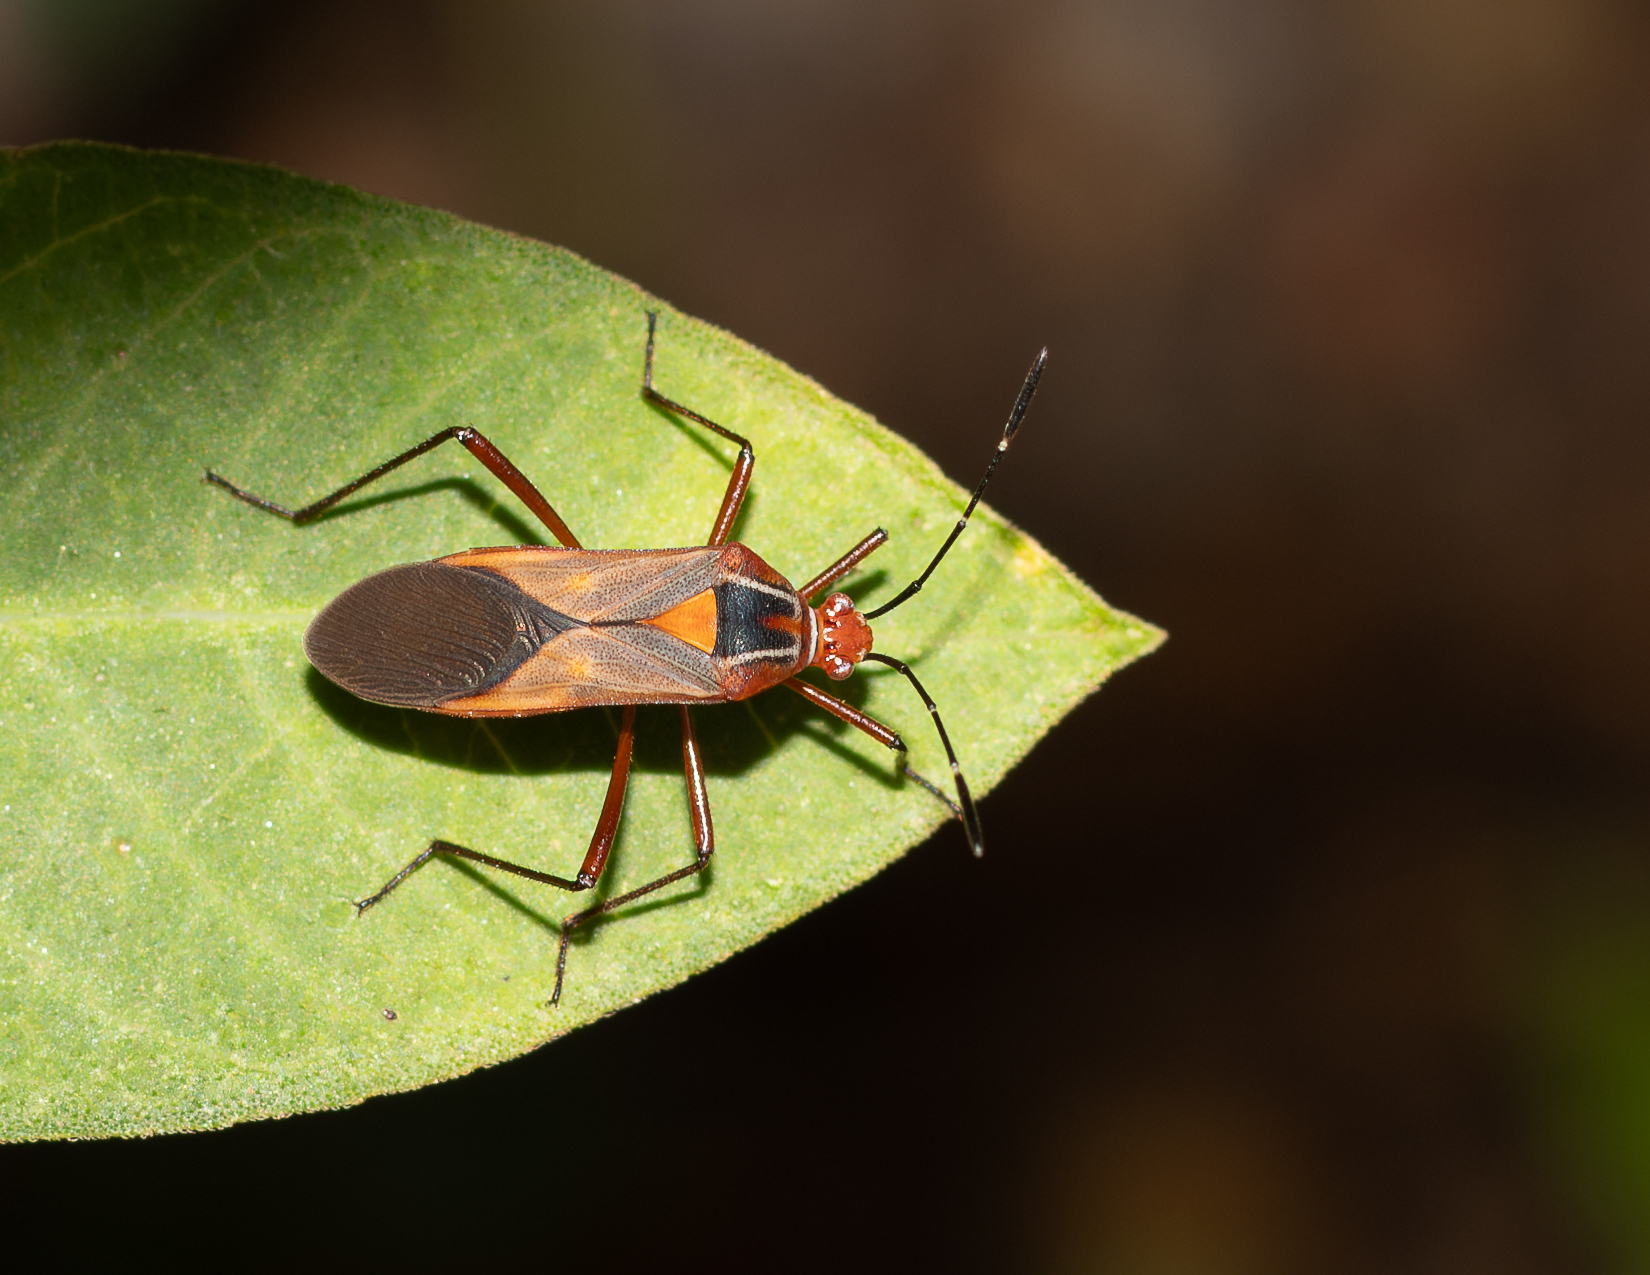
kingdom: Animalia
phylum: Arthropoda
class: Insecta
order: Hemiptera
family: Coreidae
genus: Hypselonotus
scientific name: Hypselonotus interruptus
